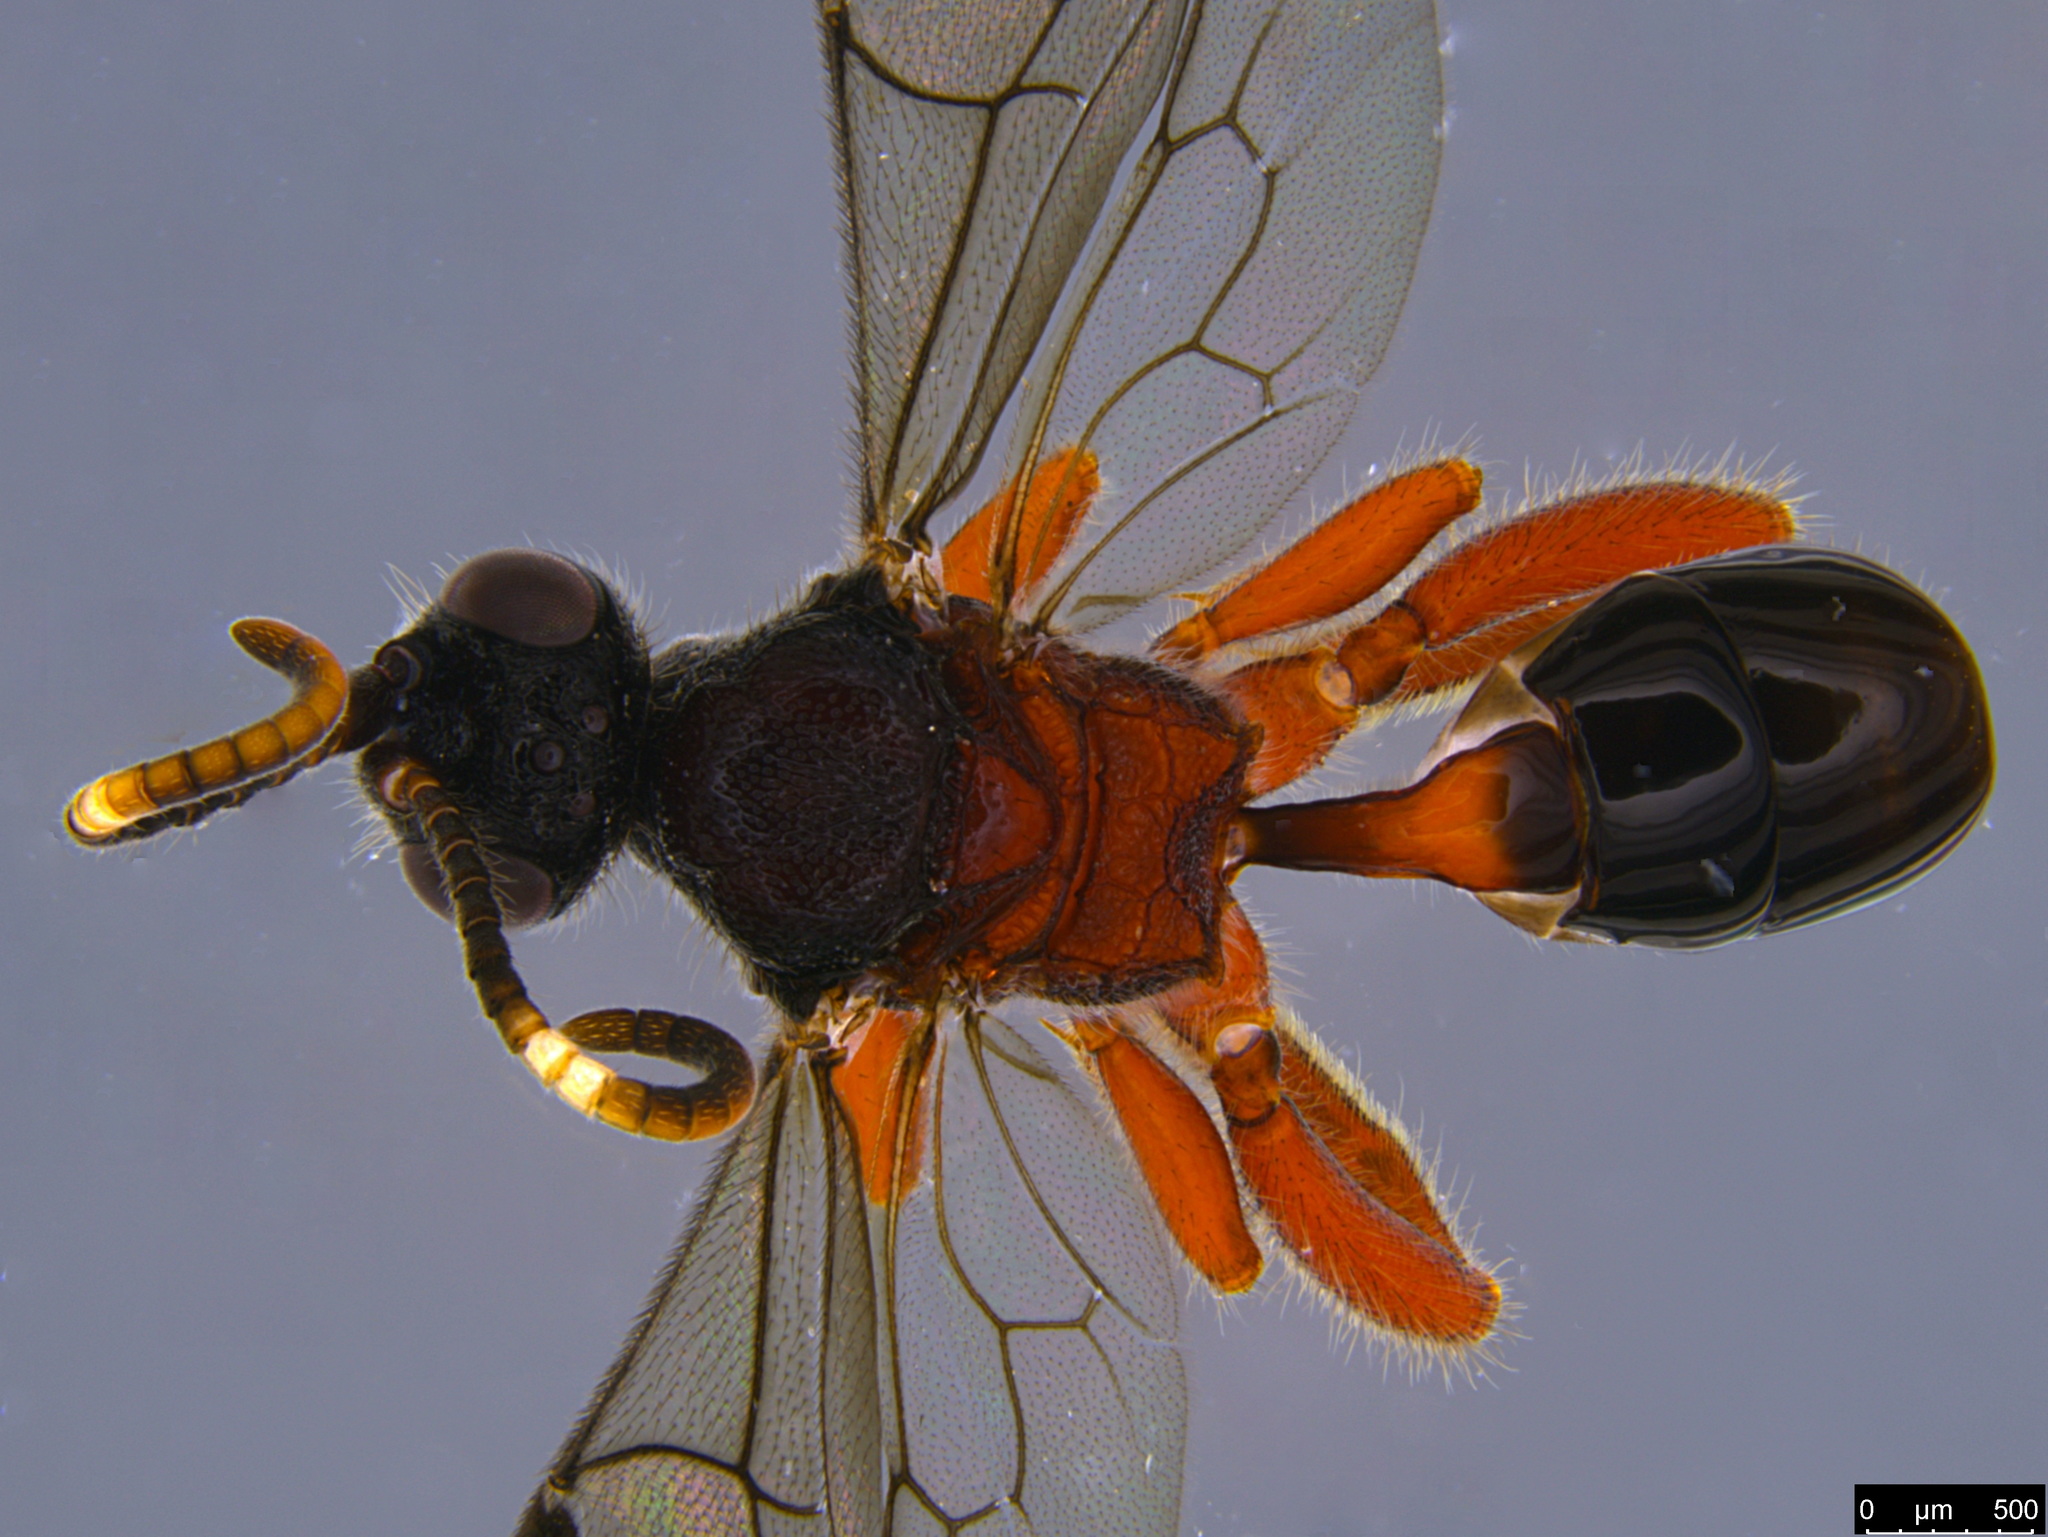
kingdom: Animalia
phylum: Arthropoda
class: Insecta
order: Hymenoptera
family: Ichneumonidae
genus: Meringops
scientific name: Meringops
